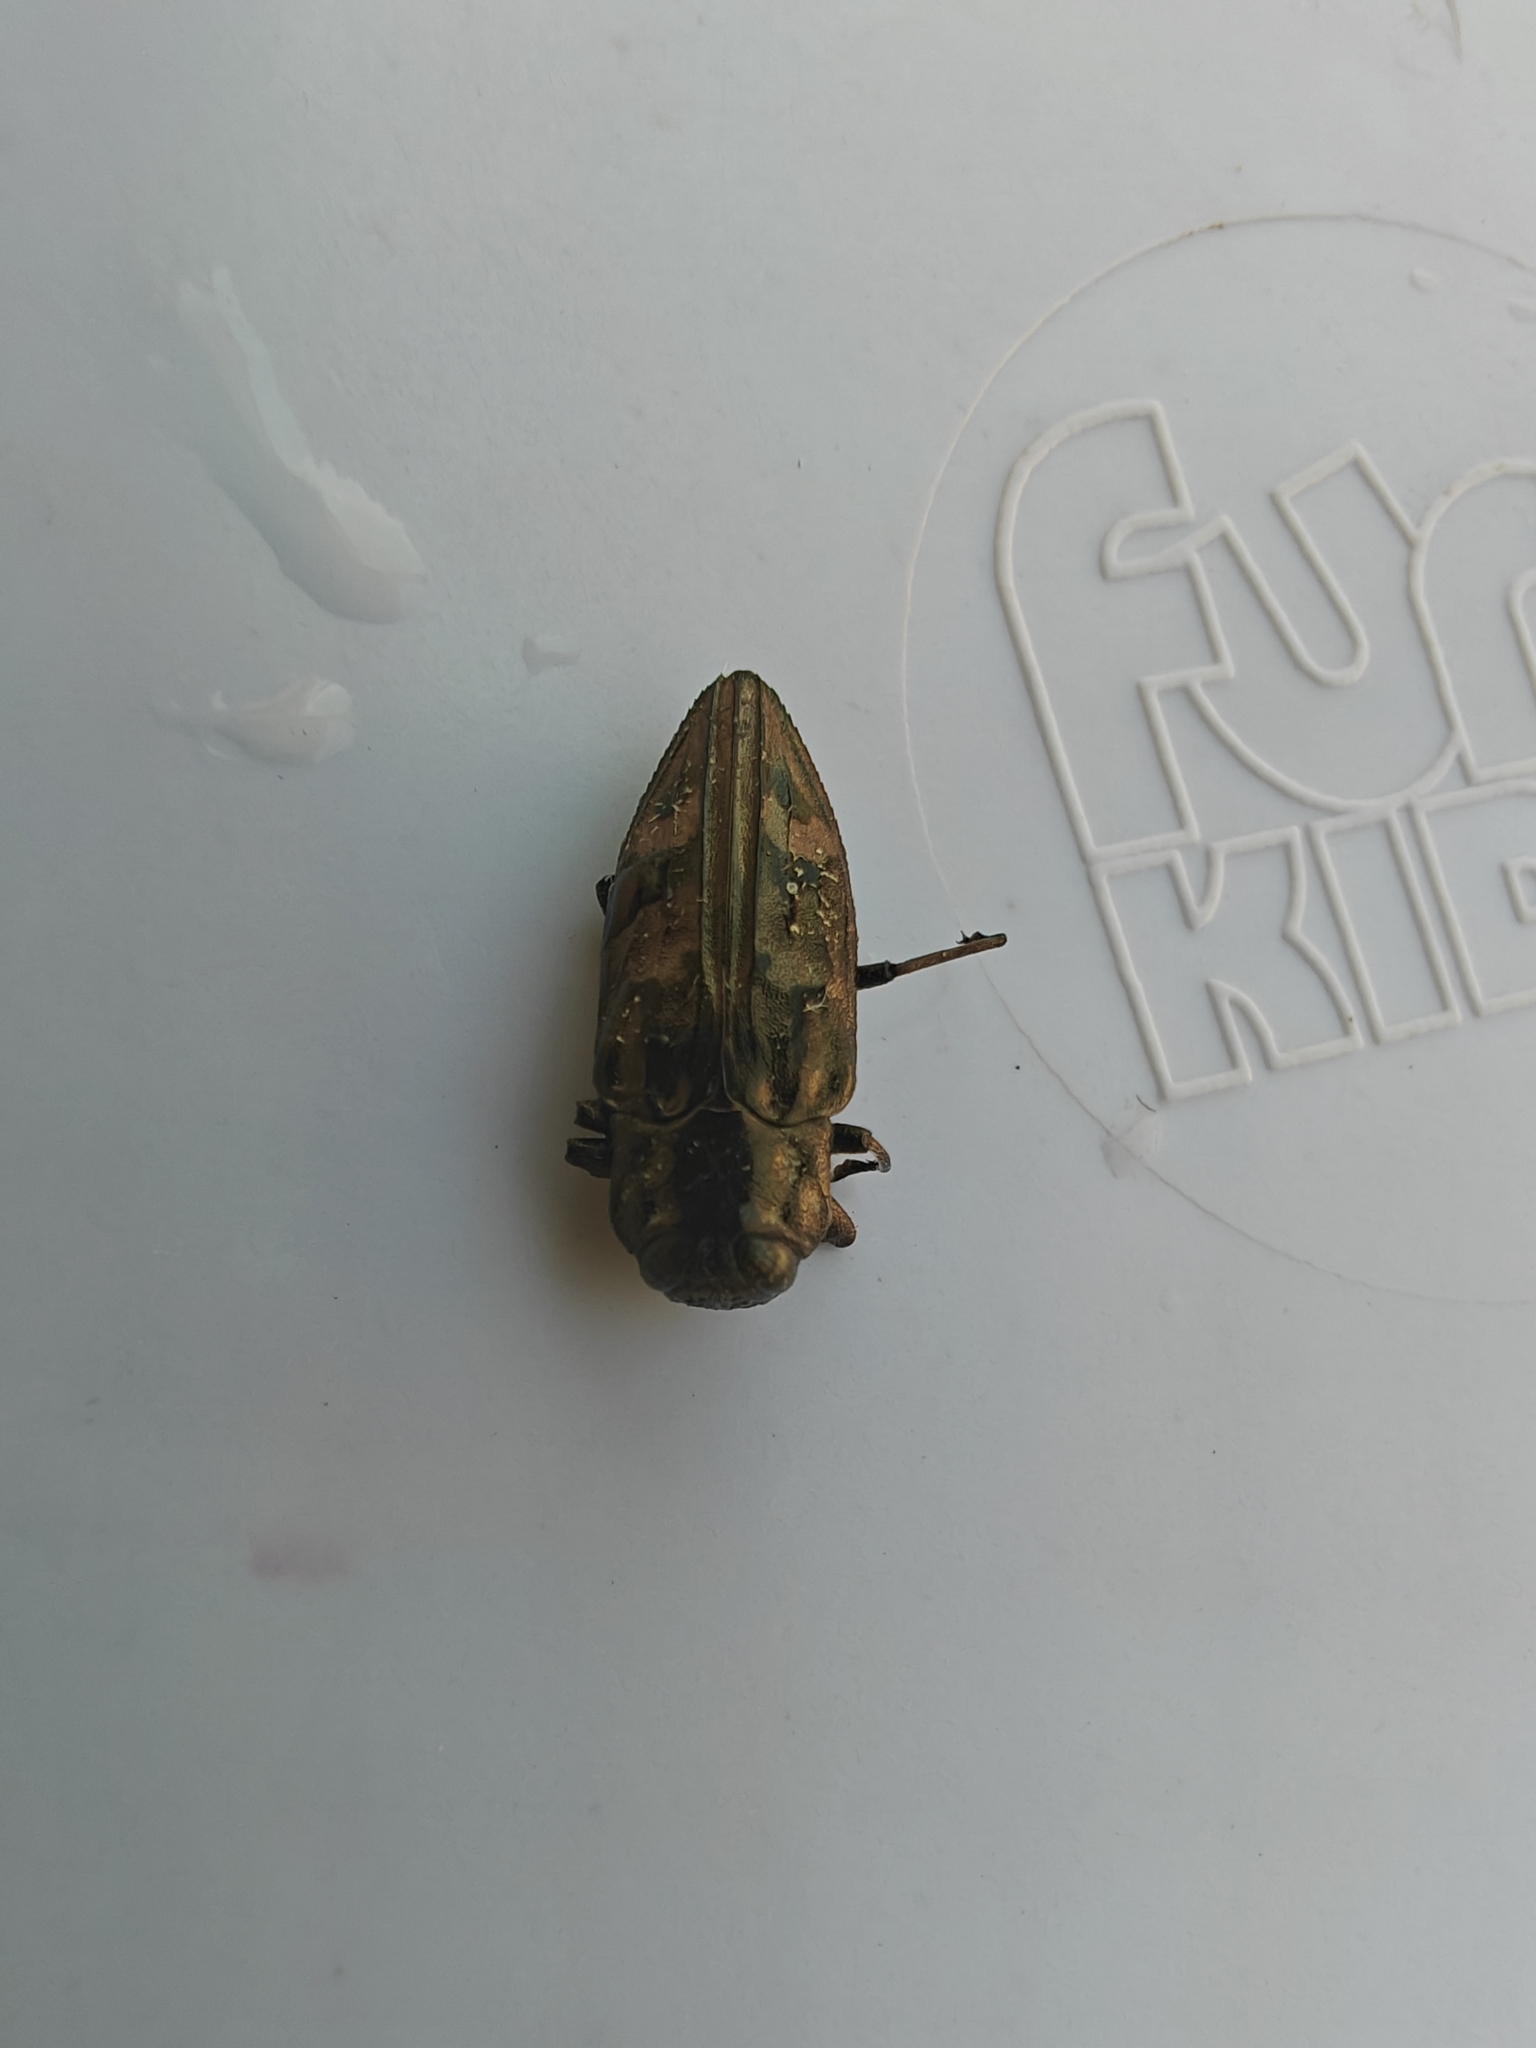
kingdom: Animalia
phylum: Arthropoda
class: Insecta
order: Coleoptera
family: Buprestidae
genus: Chrysobothris
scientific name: Chrysobothris acutipennis
